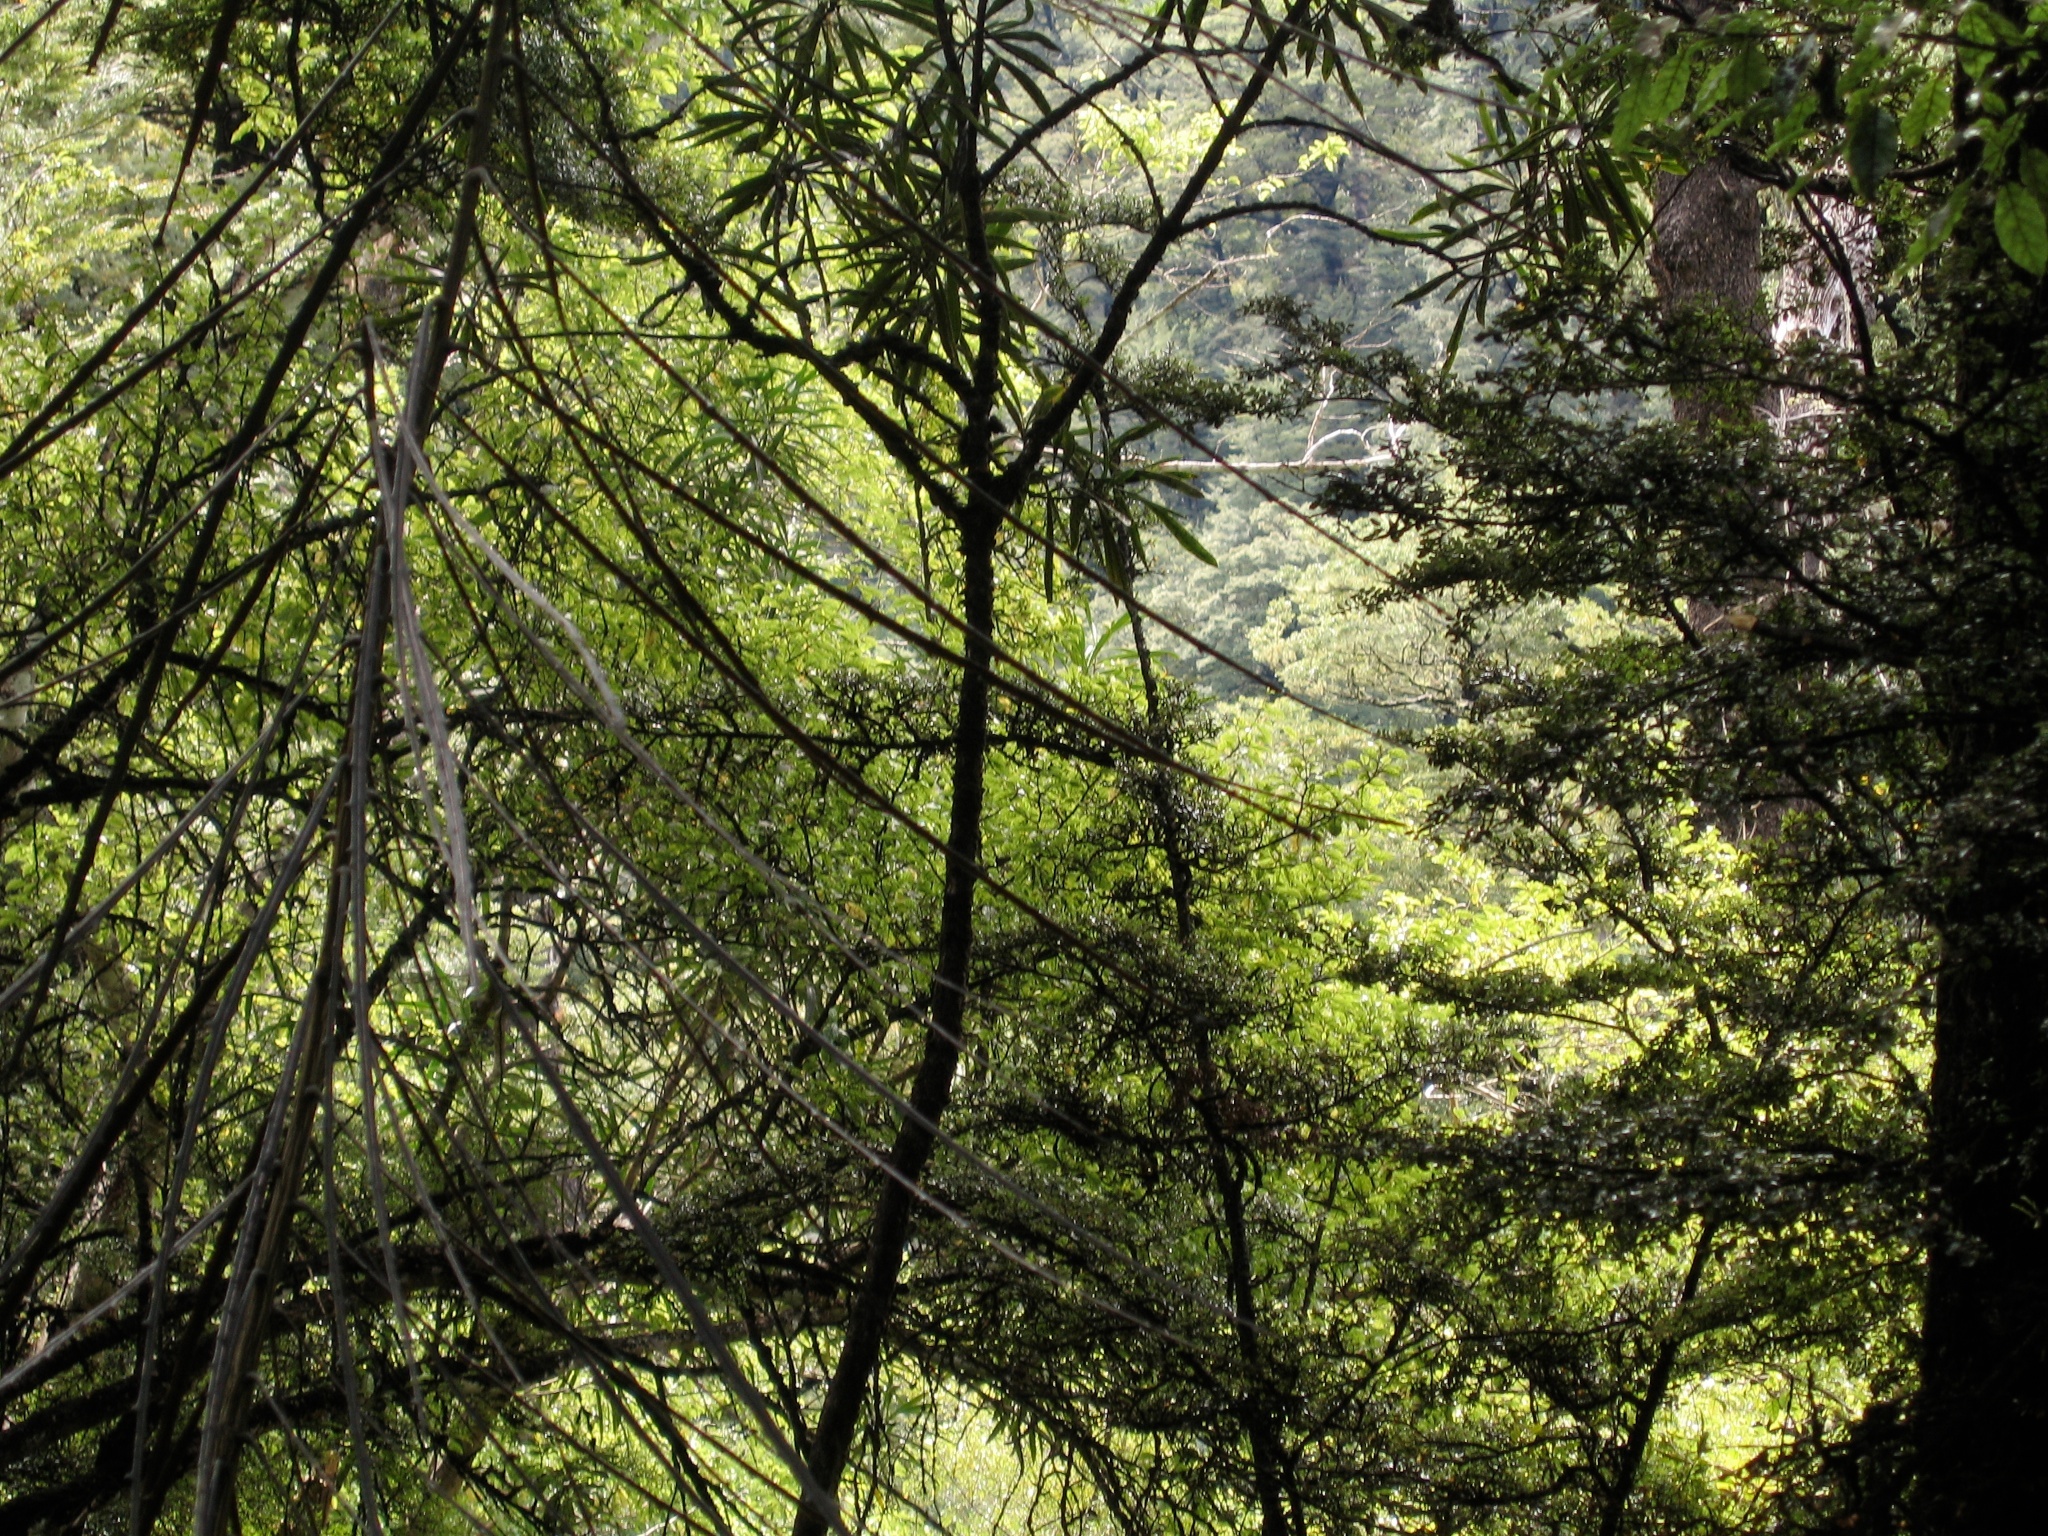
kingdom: Plantae
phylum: Tracheophyta
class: Magnoliopsida
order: Apiales
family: Araliaceae
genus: Pseudopanax
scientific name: Pseudopanax crassifolius
